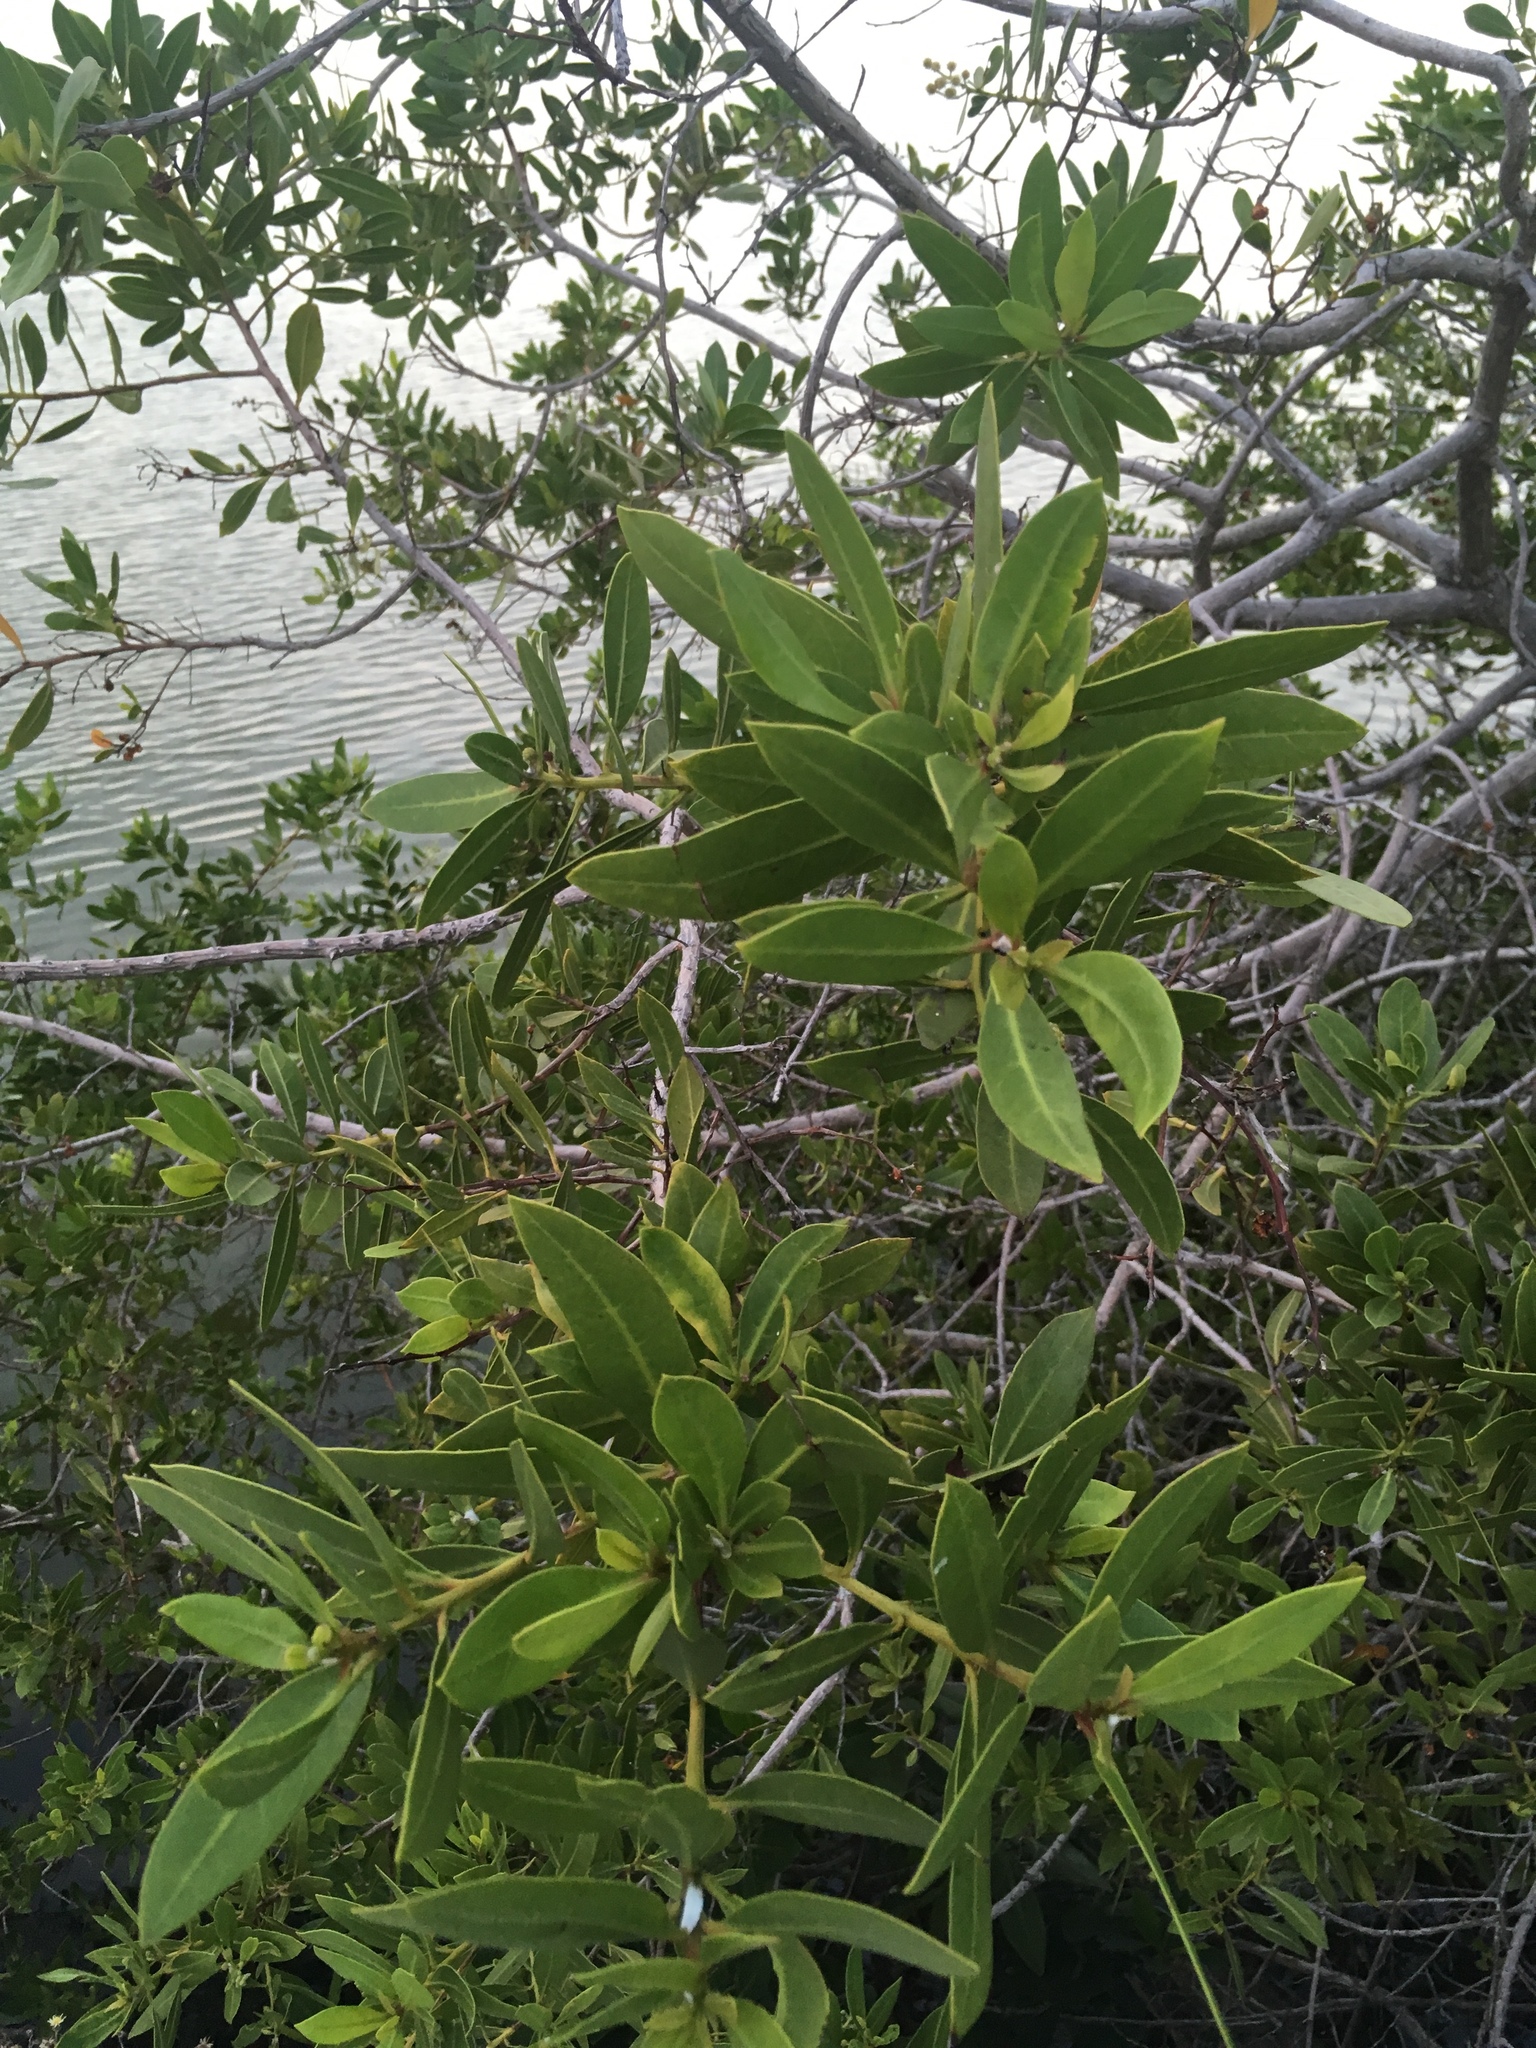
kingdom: Plantae
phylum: Tracheophyta
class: Magnoliopsida
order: Myrtales
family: Combretaceae
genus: Conocarpus
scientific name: Conocarpus erectus
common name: Button mangrove
